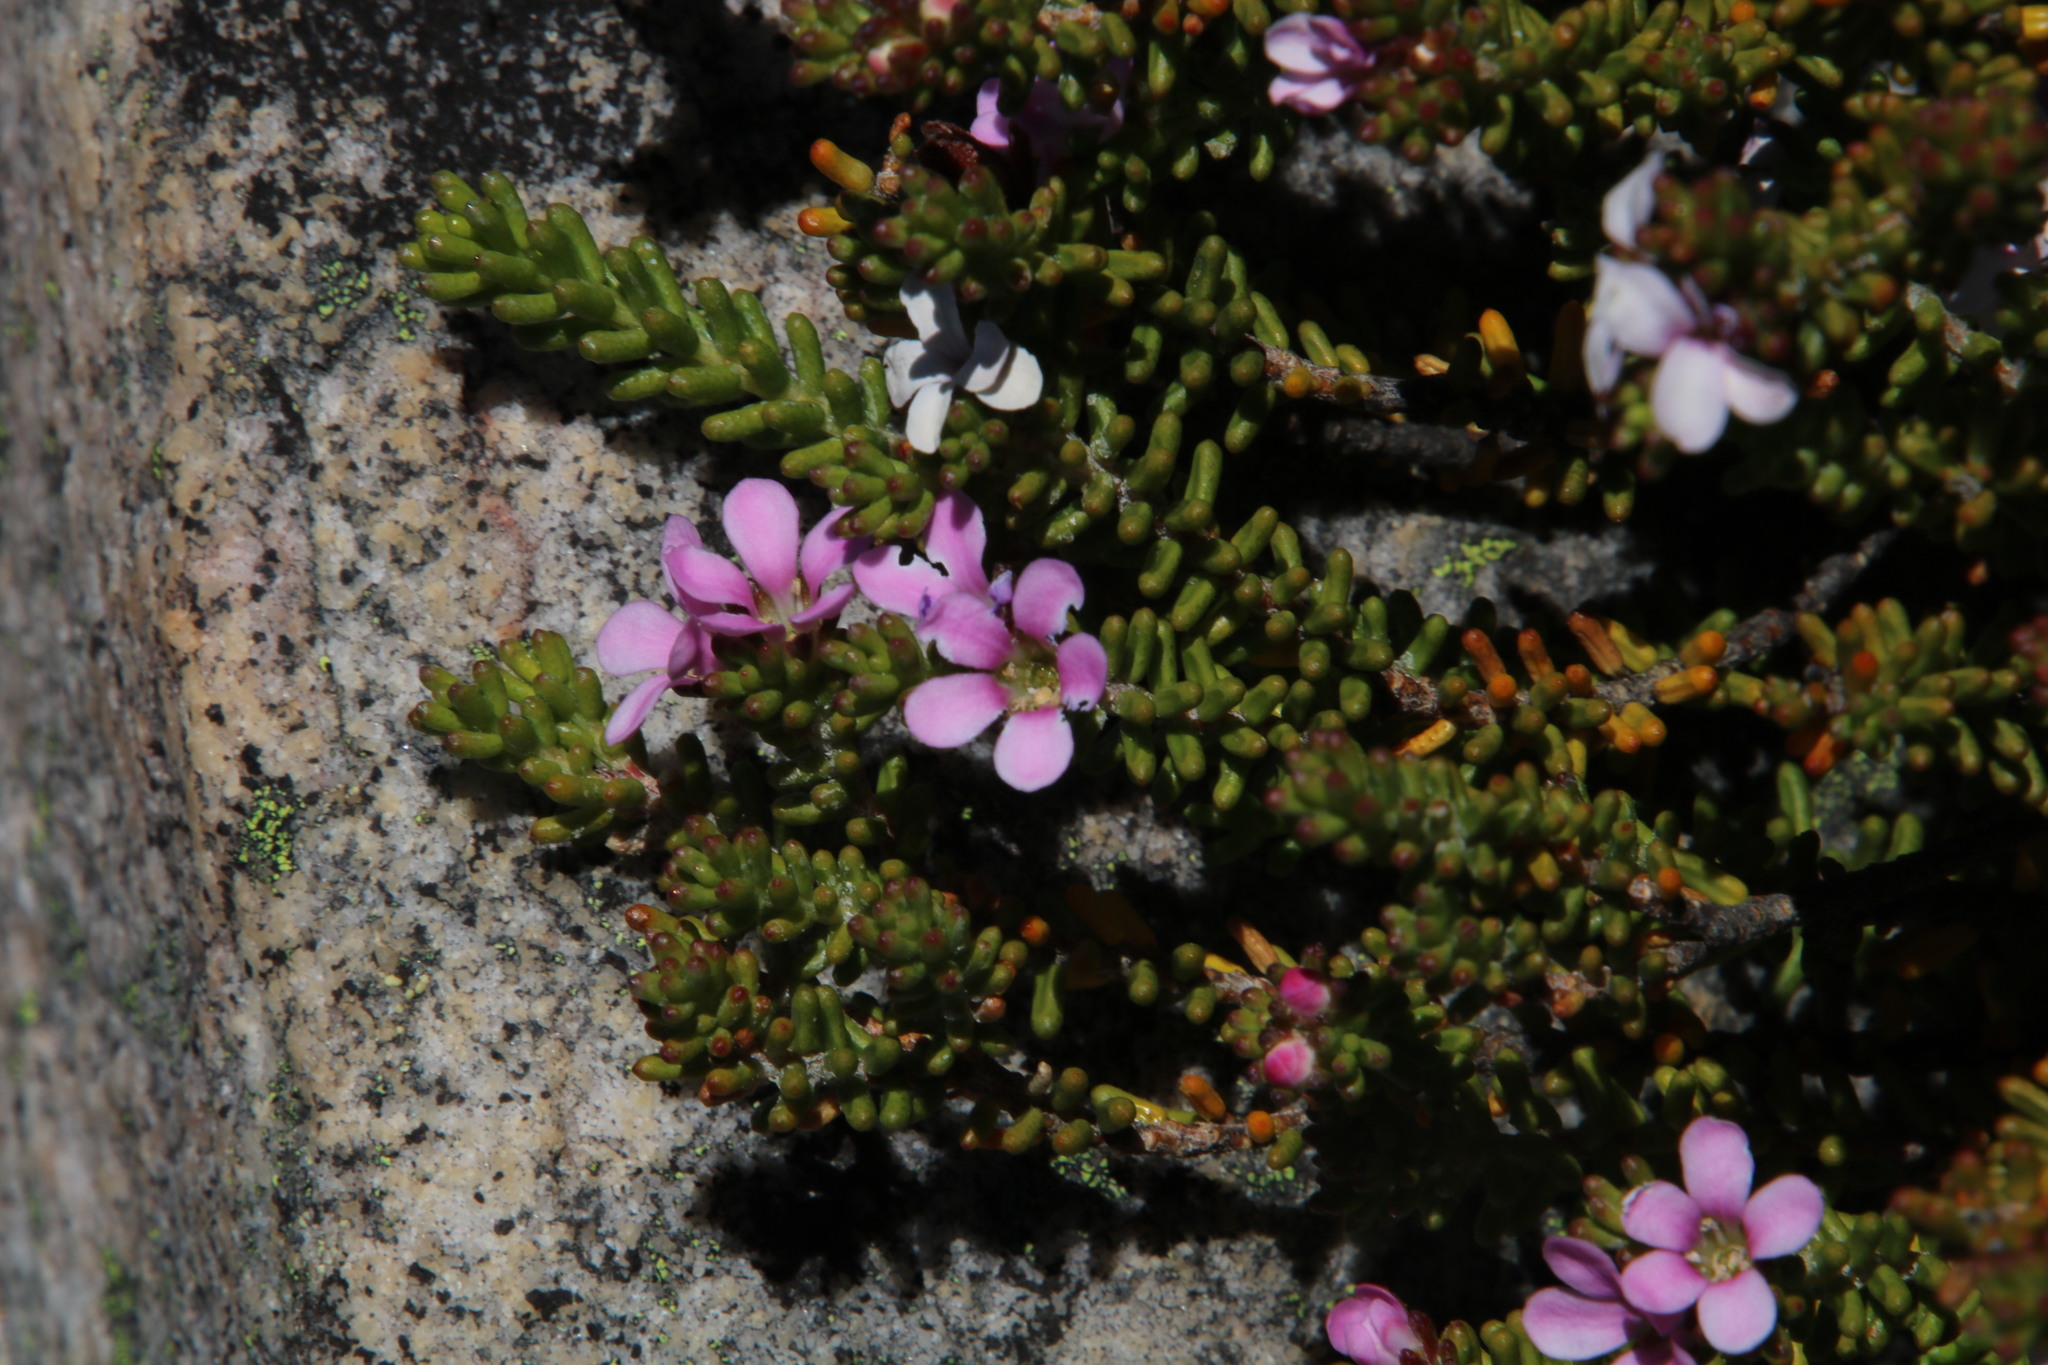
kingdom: Plantae
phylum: Tracheophyta
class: Magnoliopsida
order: Sapindales
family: Rutaceae
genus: Acmadenia
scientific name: Acmadenia teretifolia
